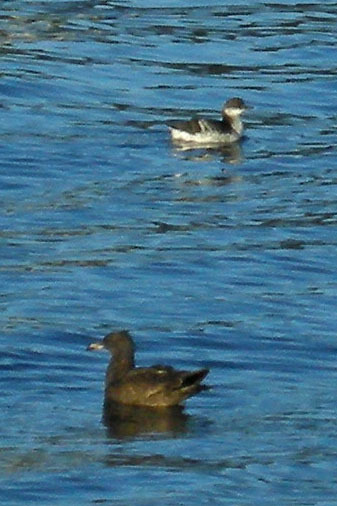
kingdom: Animalia
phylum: Chordata
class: Aves
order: Charadriiformes
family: Laridae
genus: Larus
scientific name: Larus heermanni
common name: Heermann's gull
